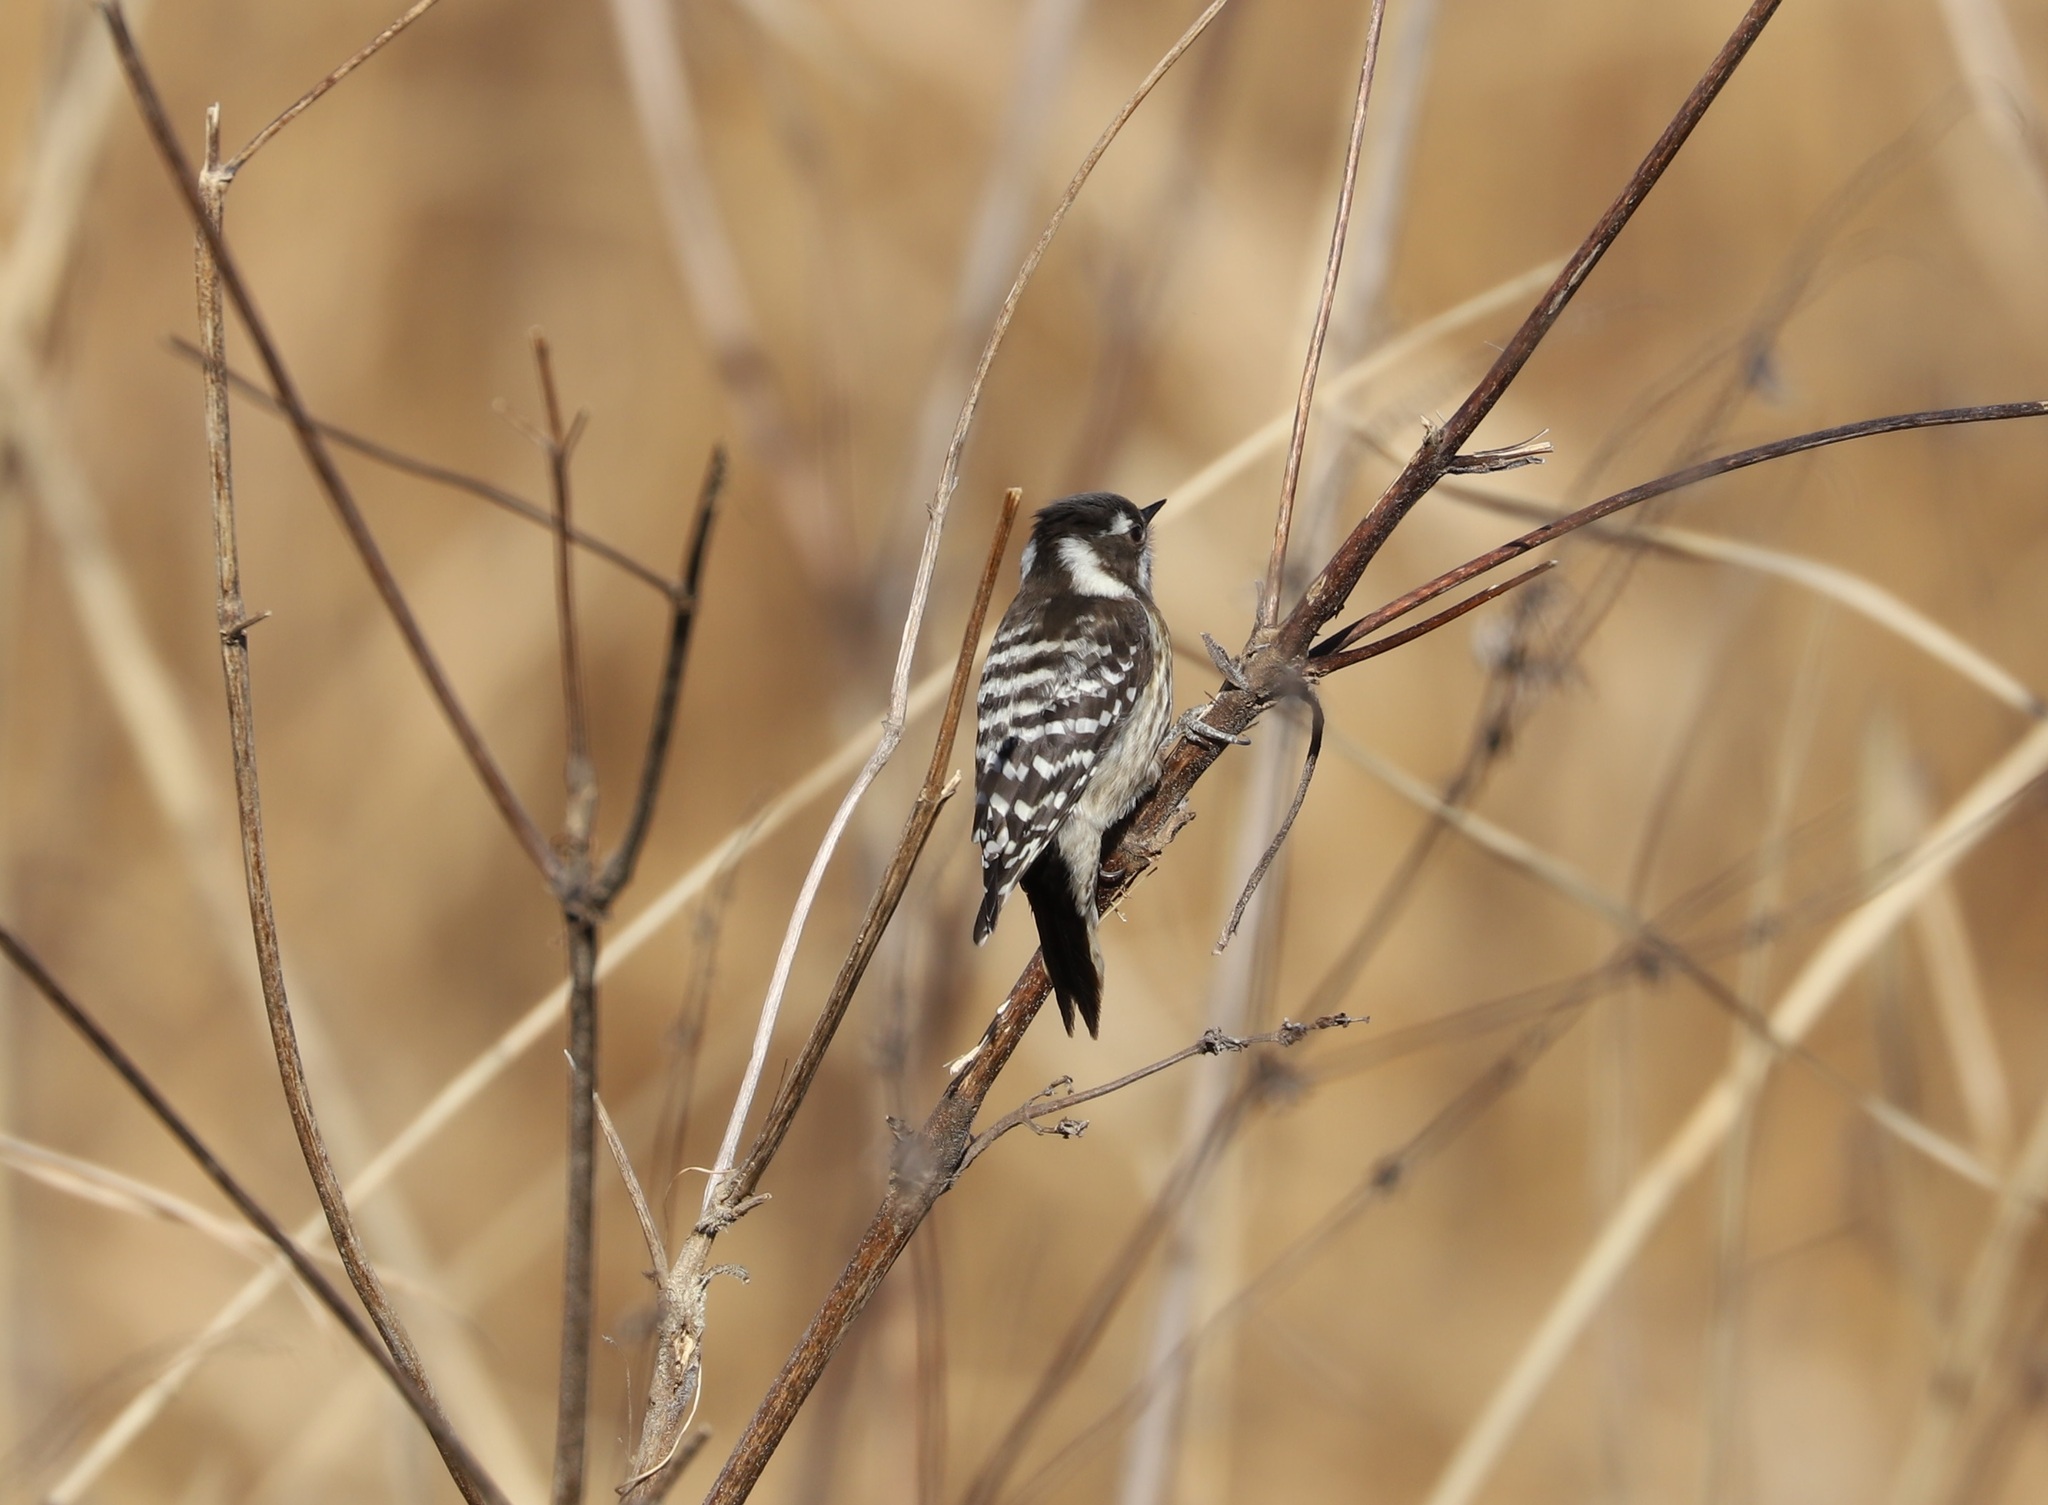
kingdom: Animalia
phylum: Chordata
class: Aves
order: Piciformes
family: Picidae
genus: Yungipicus
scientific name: Yungipicus kizuki
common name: Japanese pygmy woodpecker
